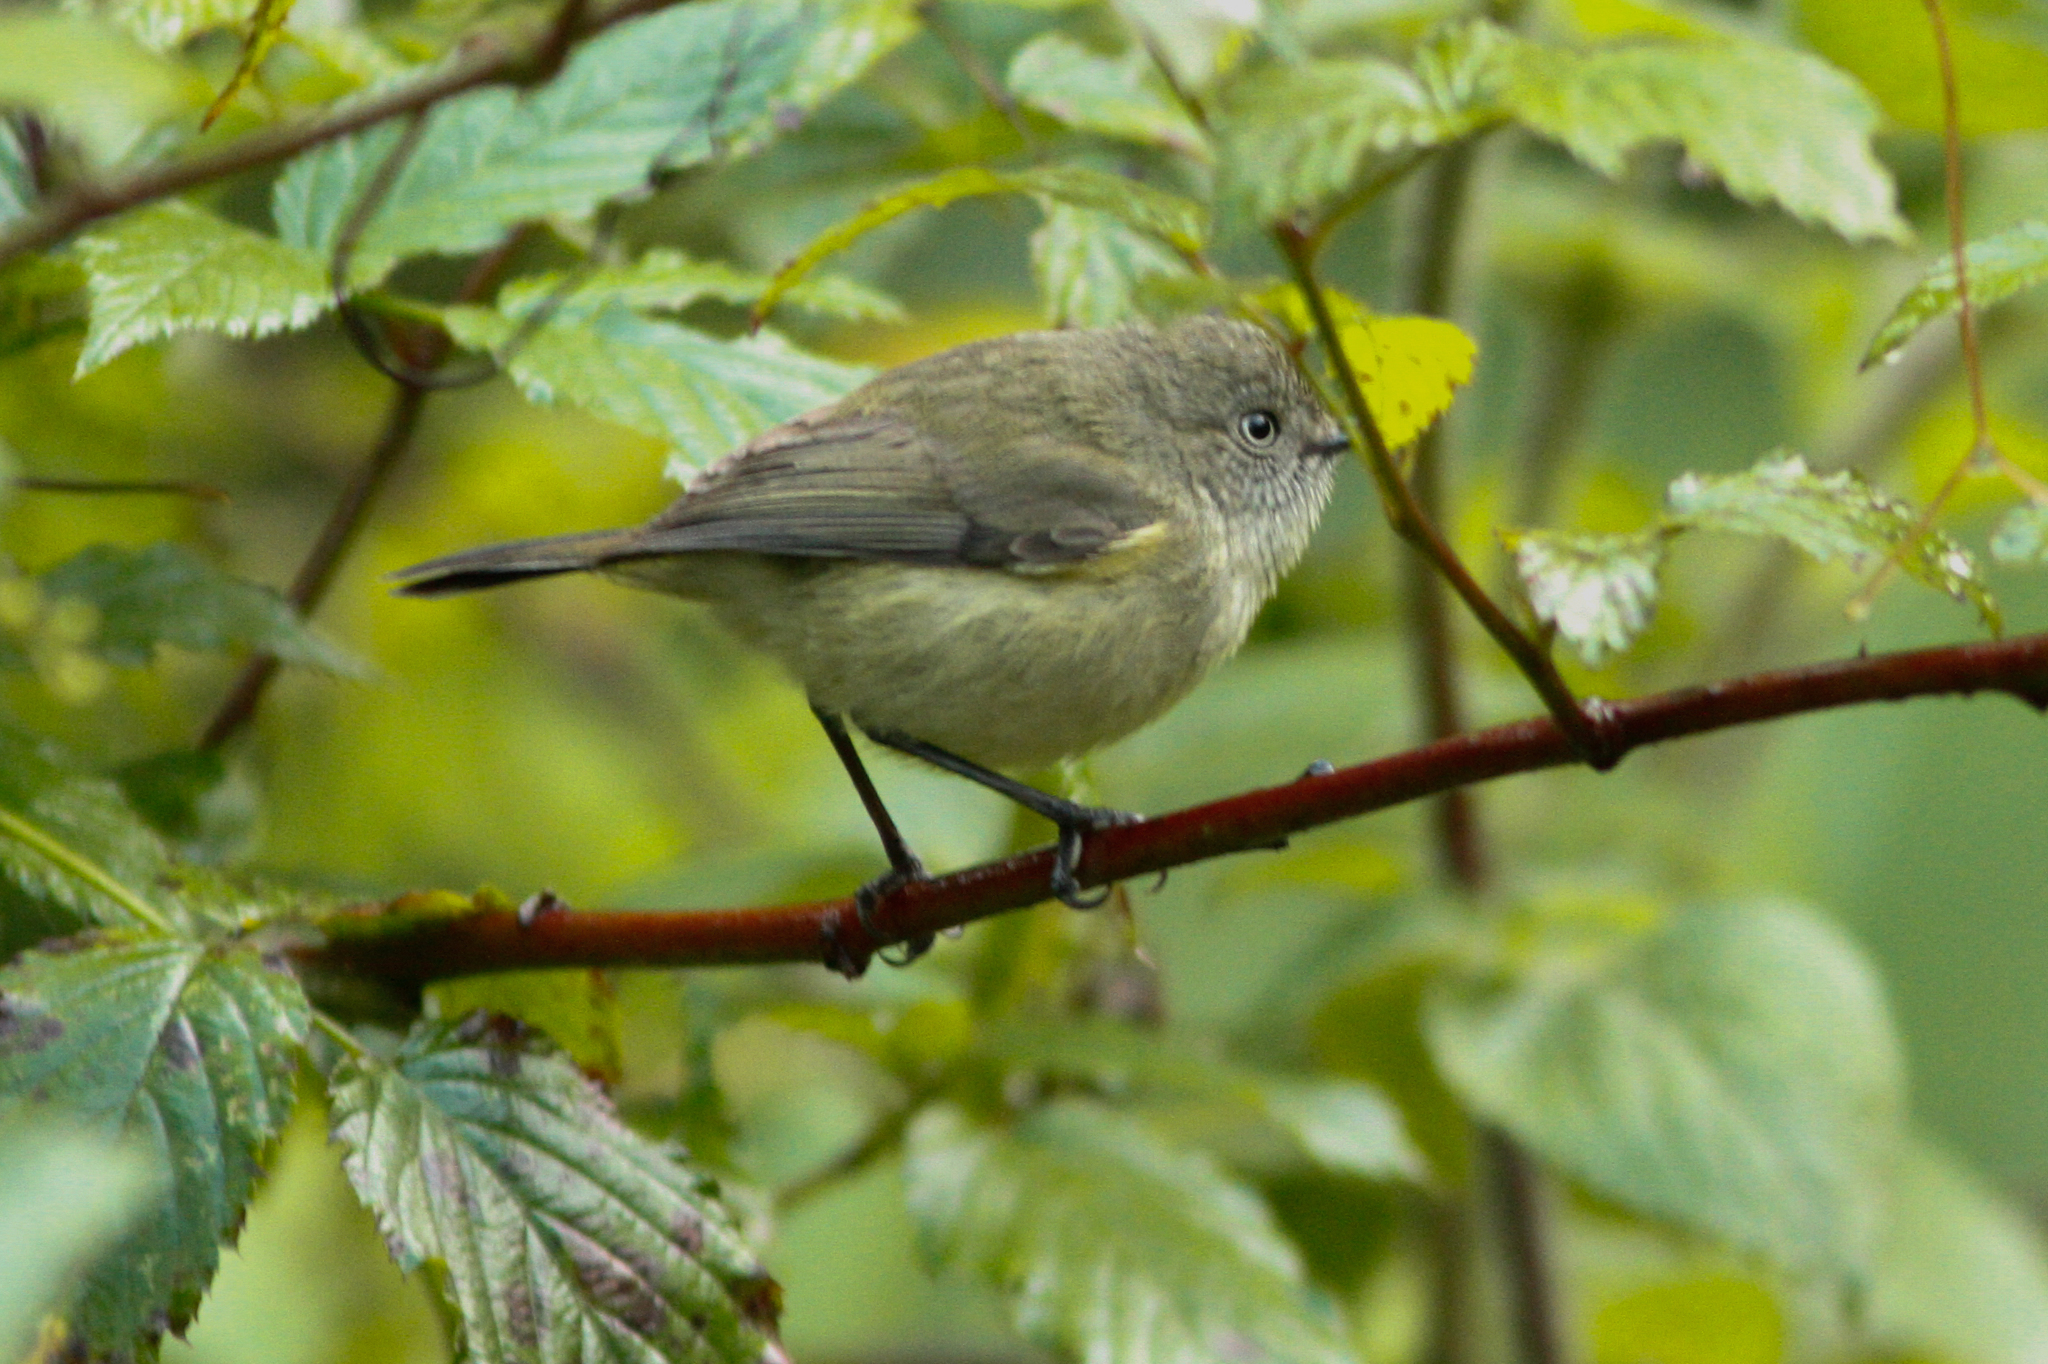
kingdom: Animalia
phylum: Chordata
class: Aves
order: Passeriformes
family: Acanthizidae
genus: Acanthiza
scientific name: Acanthiza katherina
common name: Mountain thornbill
